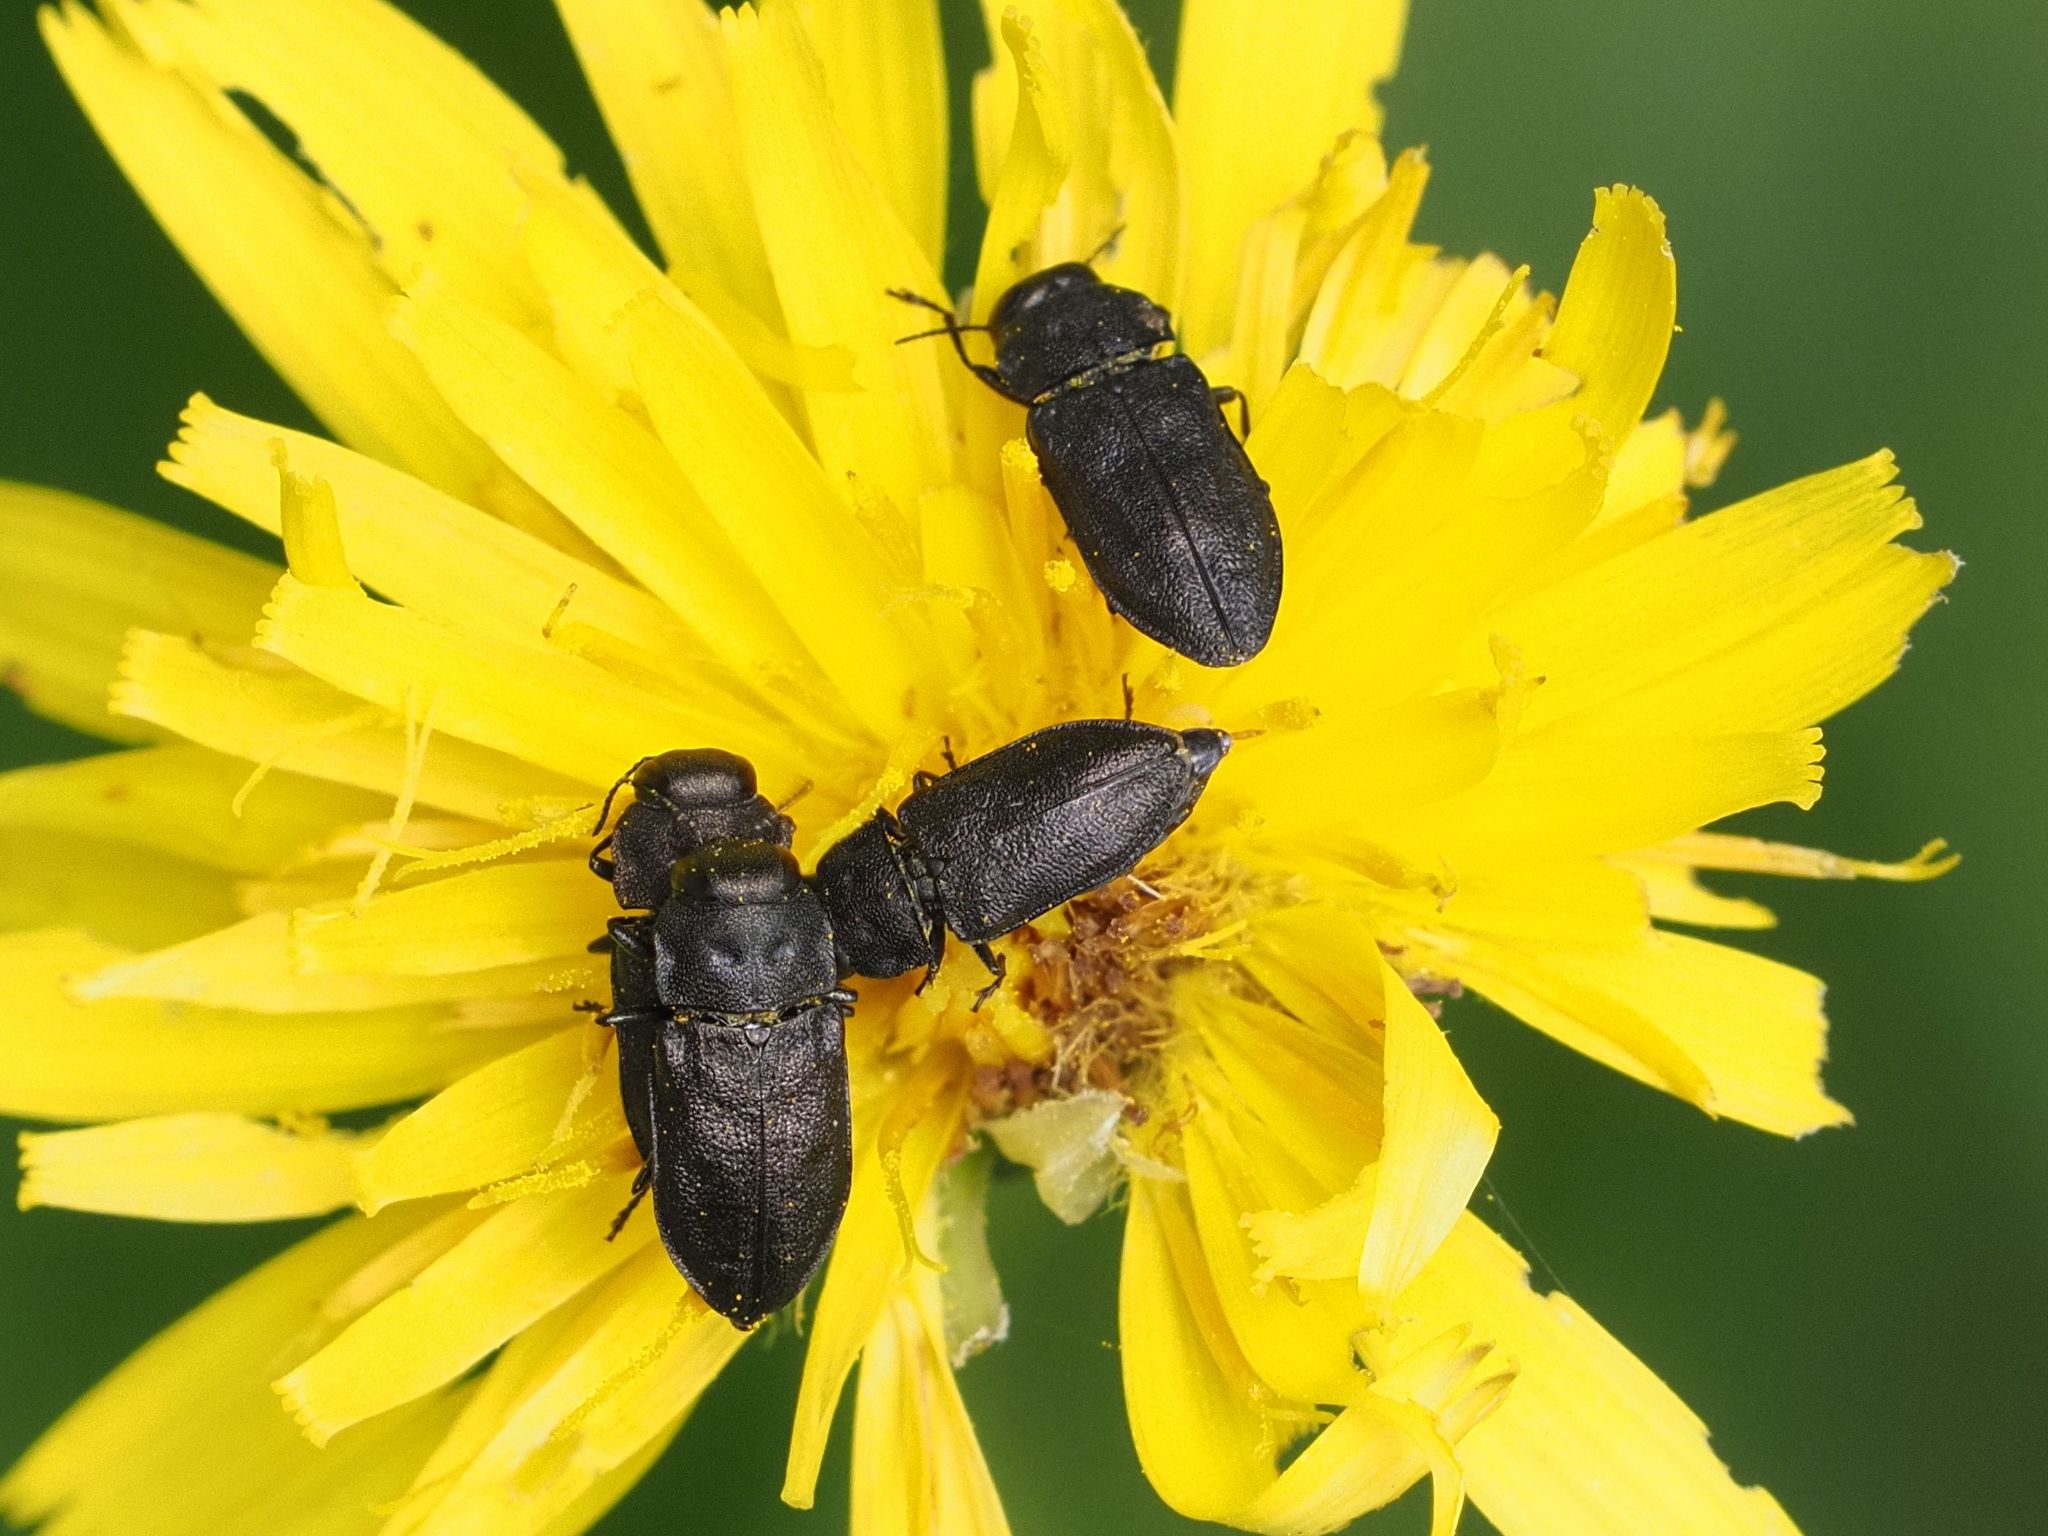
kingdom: Animalia
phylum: Arthropoda
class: Insecta
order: Coleoptera
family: Buprestidae
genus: Anthaxia
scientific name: Anthaxia quadripunctata
